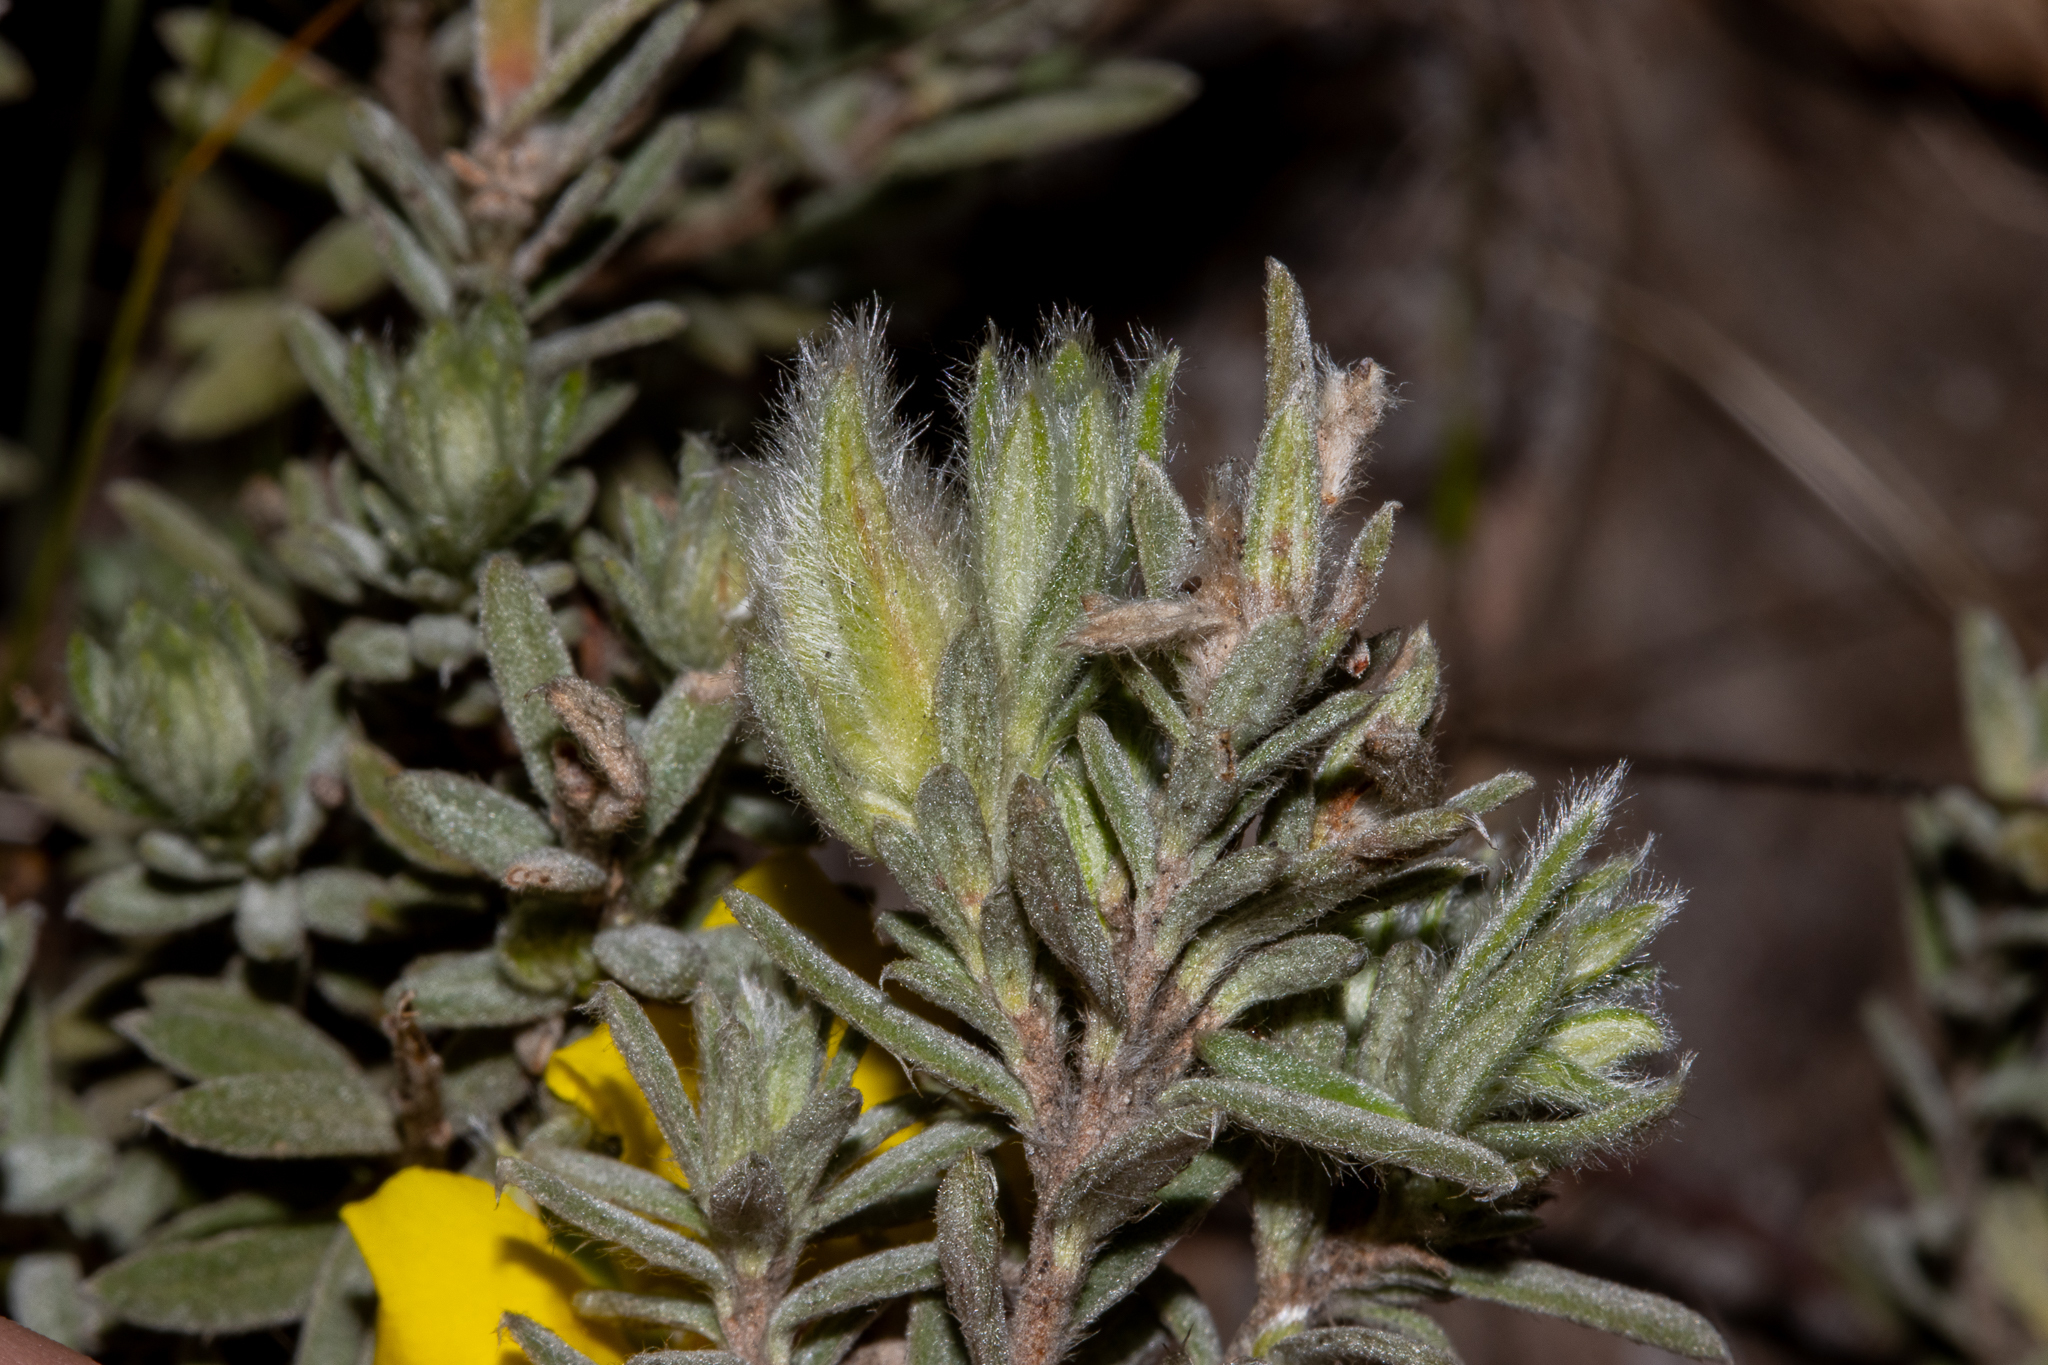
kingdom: Plantae
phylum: Tracheophyta
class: Magnoliopsida
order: Dilleniales
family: Dilleniaceae
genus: Hibbertia
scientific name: Hibbertia crinita
